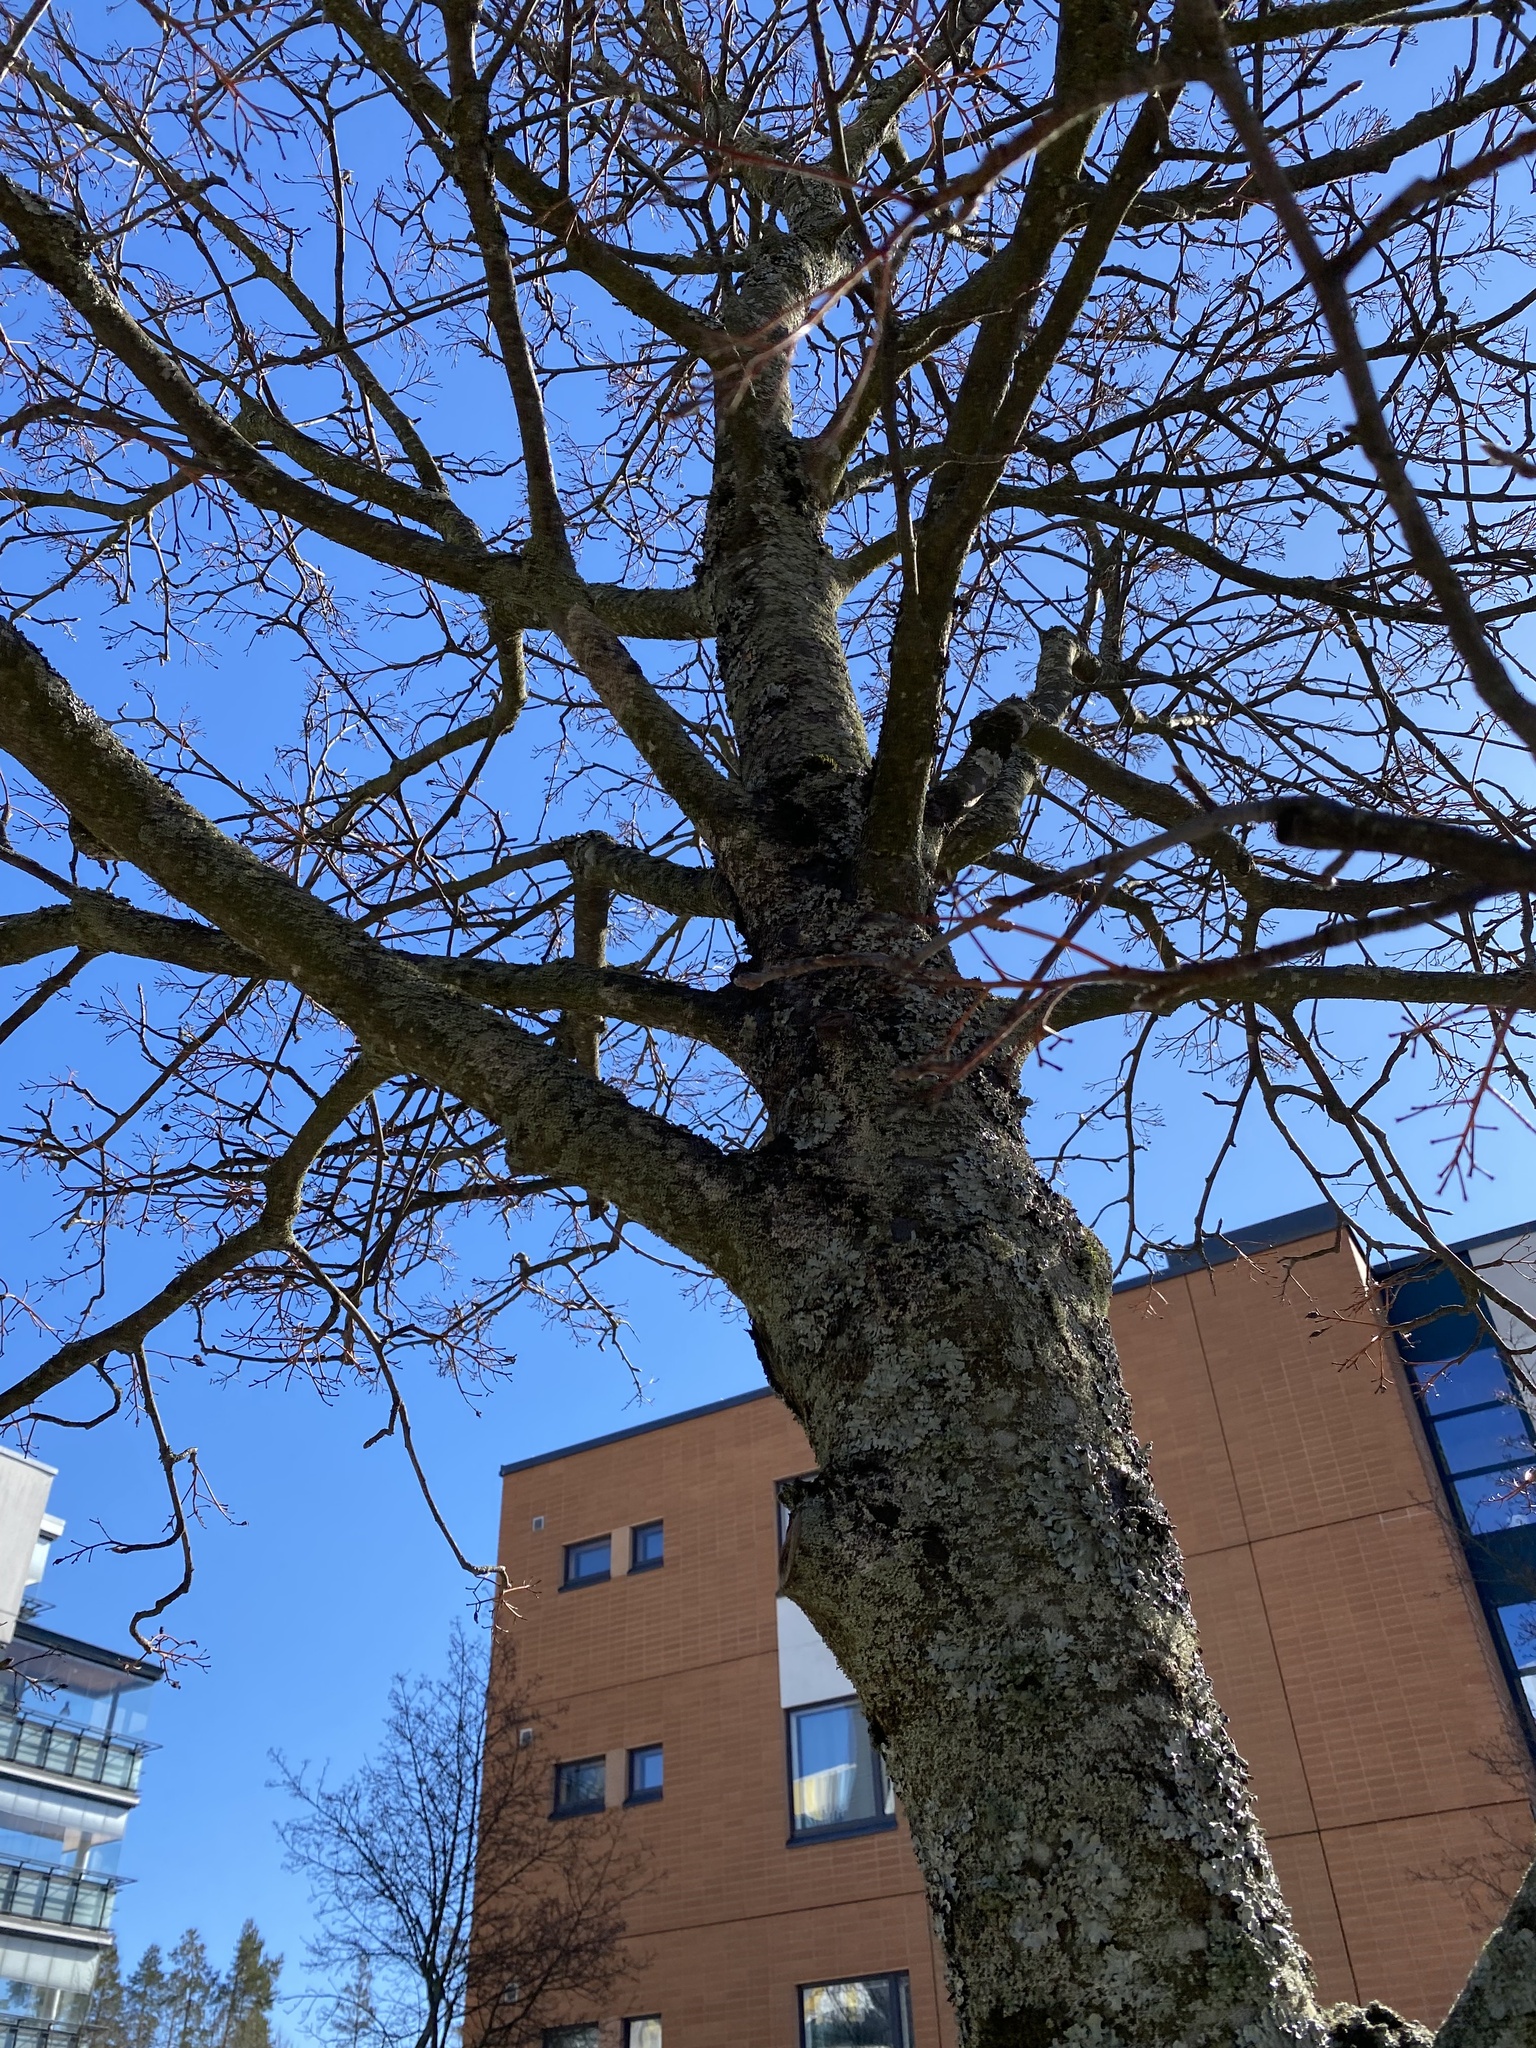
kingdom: Fungi
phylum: Ascomycota
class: Lecanoromycetes
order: Lecanorales
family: Parmeliaceae
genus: Hypogymnia
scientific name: Hypogymnia tubulosa
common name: Powder-headed tube lichen
